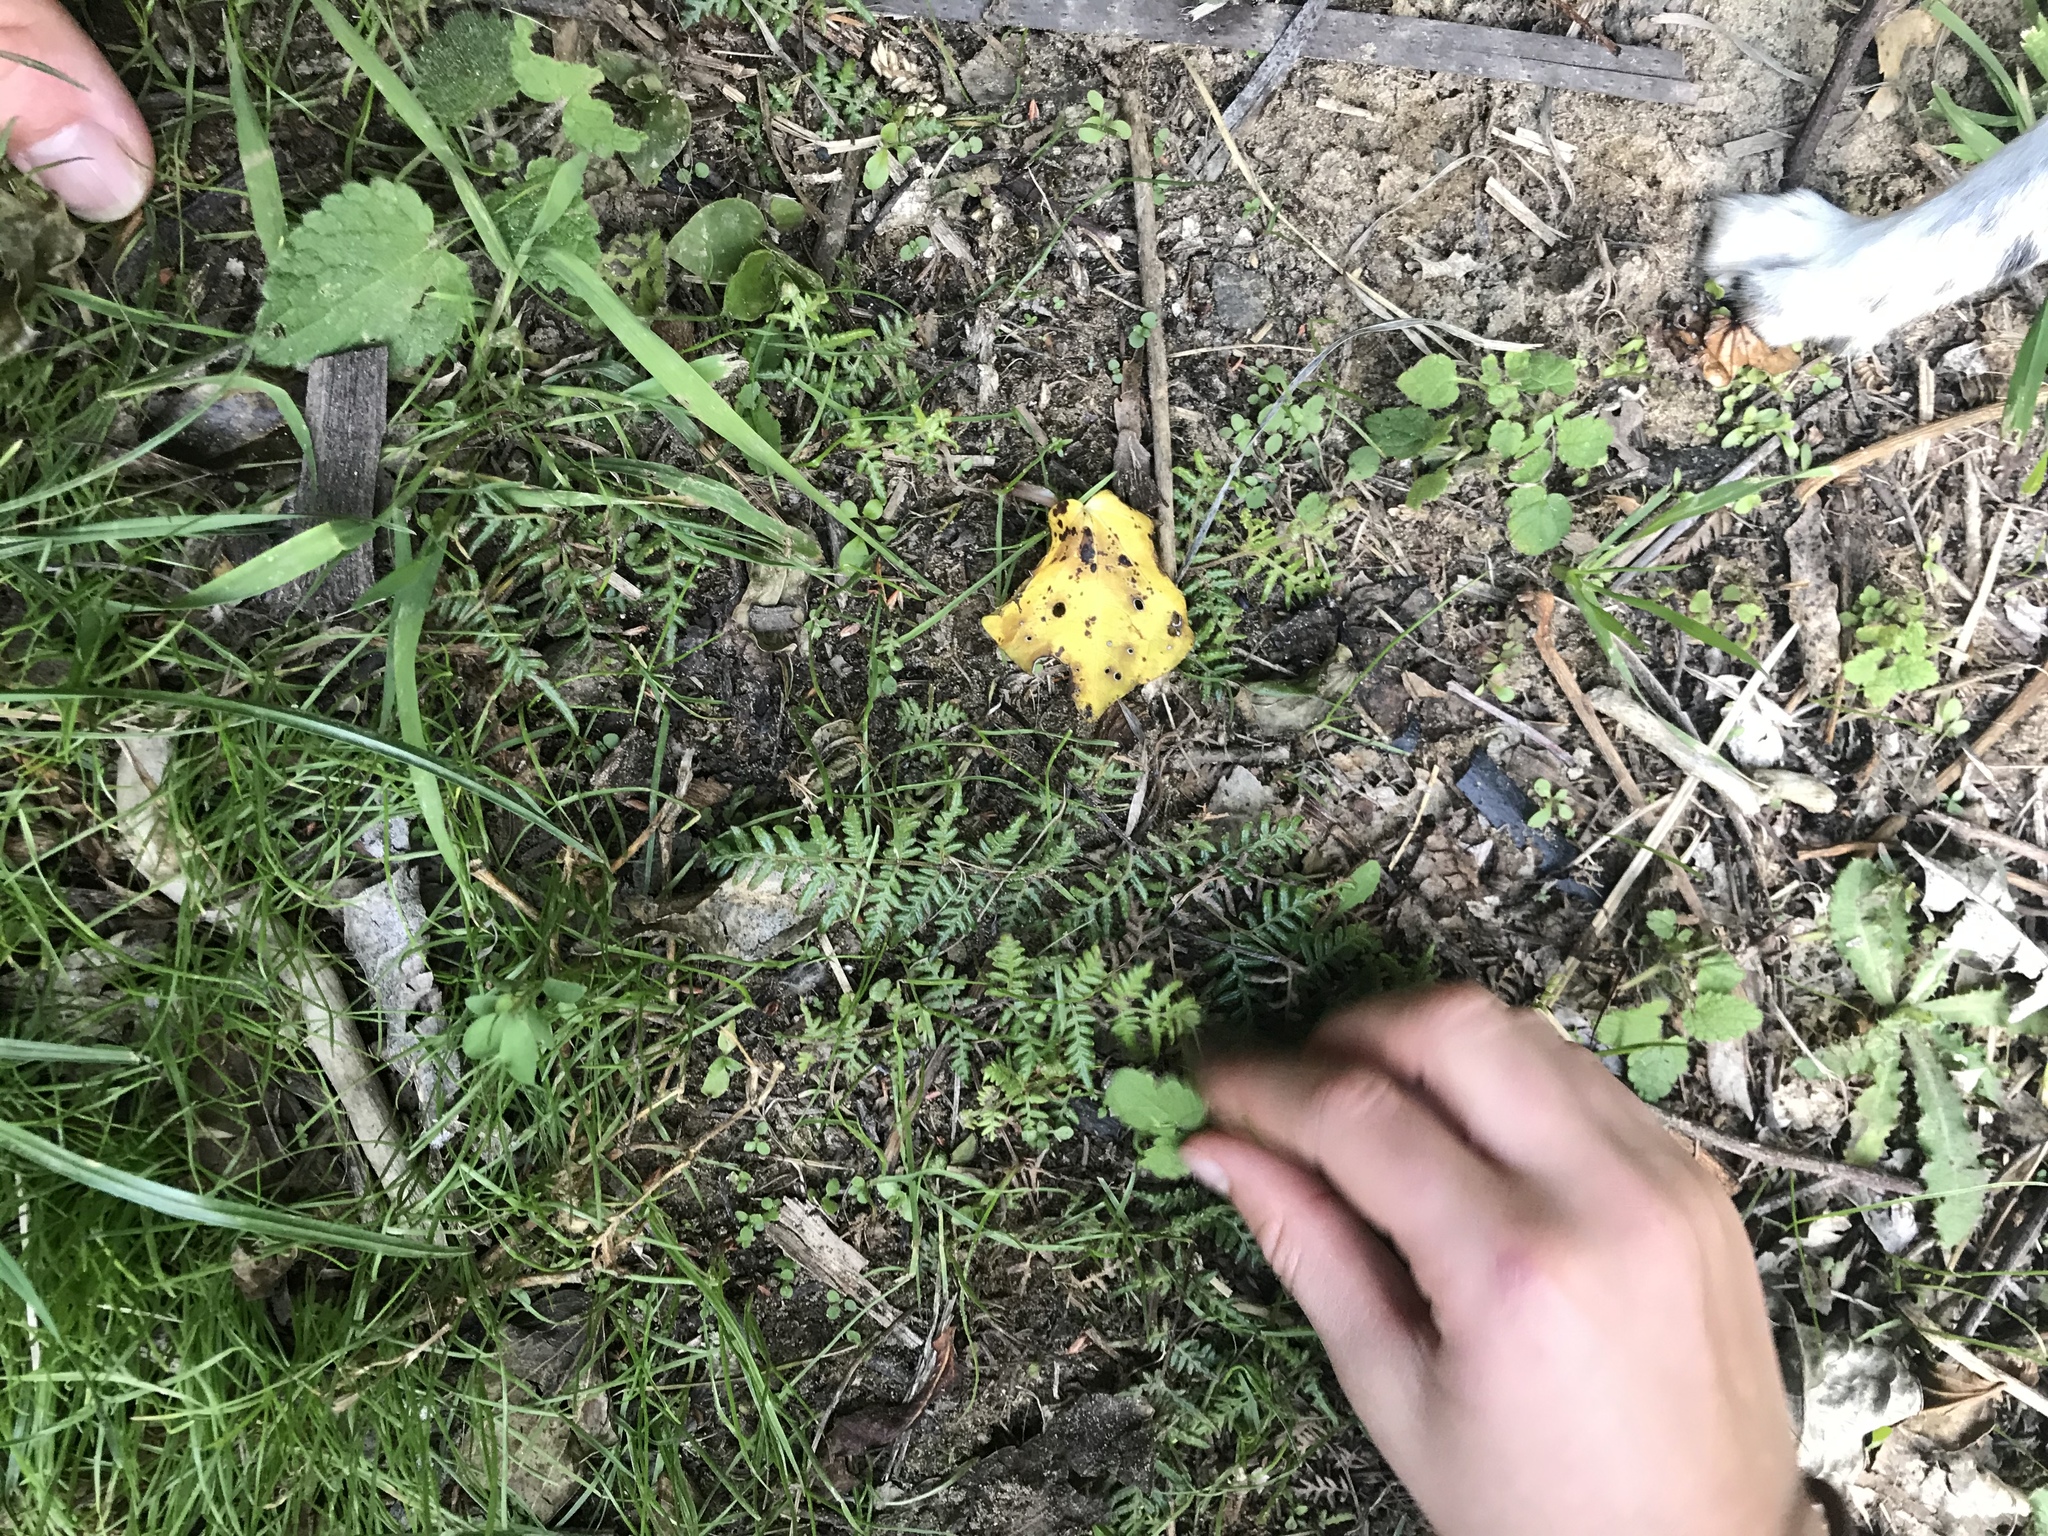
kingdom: Plantae
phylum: Tracheophyta
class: Polypodiopsida
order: Polypodiales
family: Dennstaedtiaceae
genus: Pteridium
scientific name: Pteridium esculentum
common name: Bracken fern
